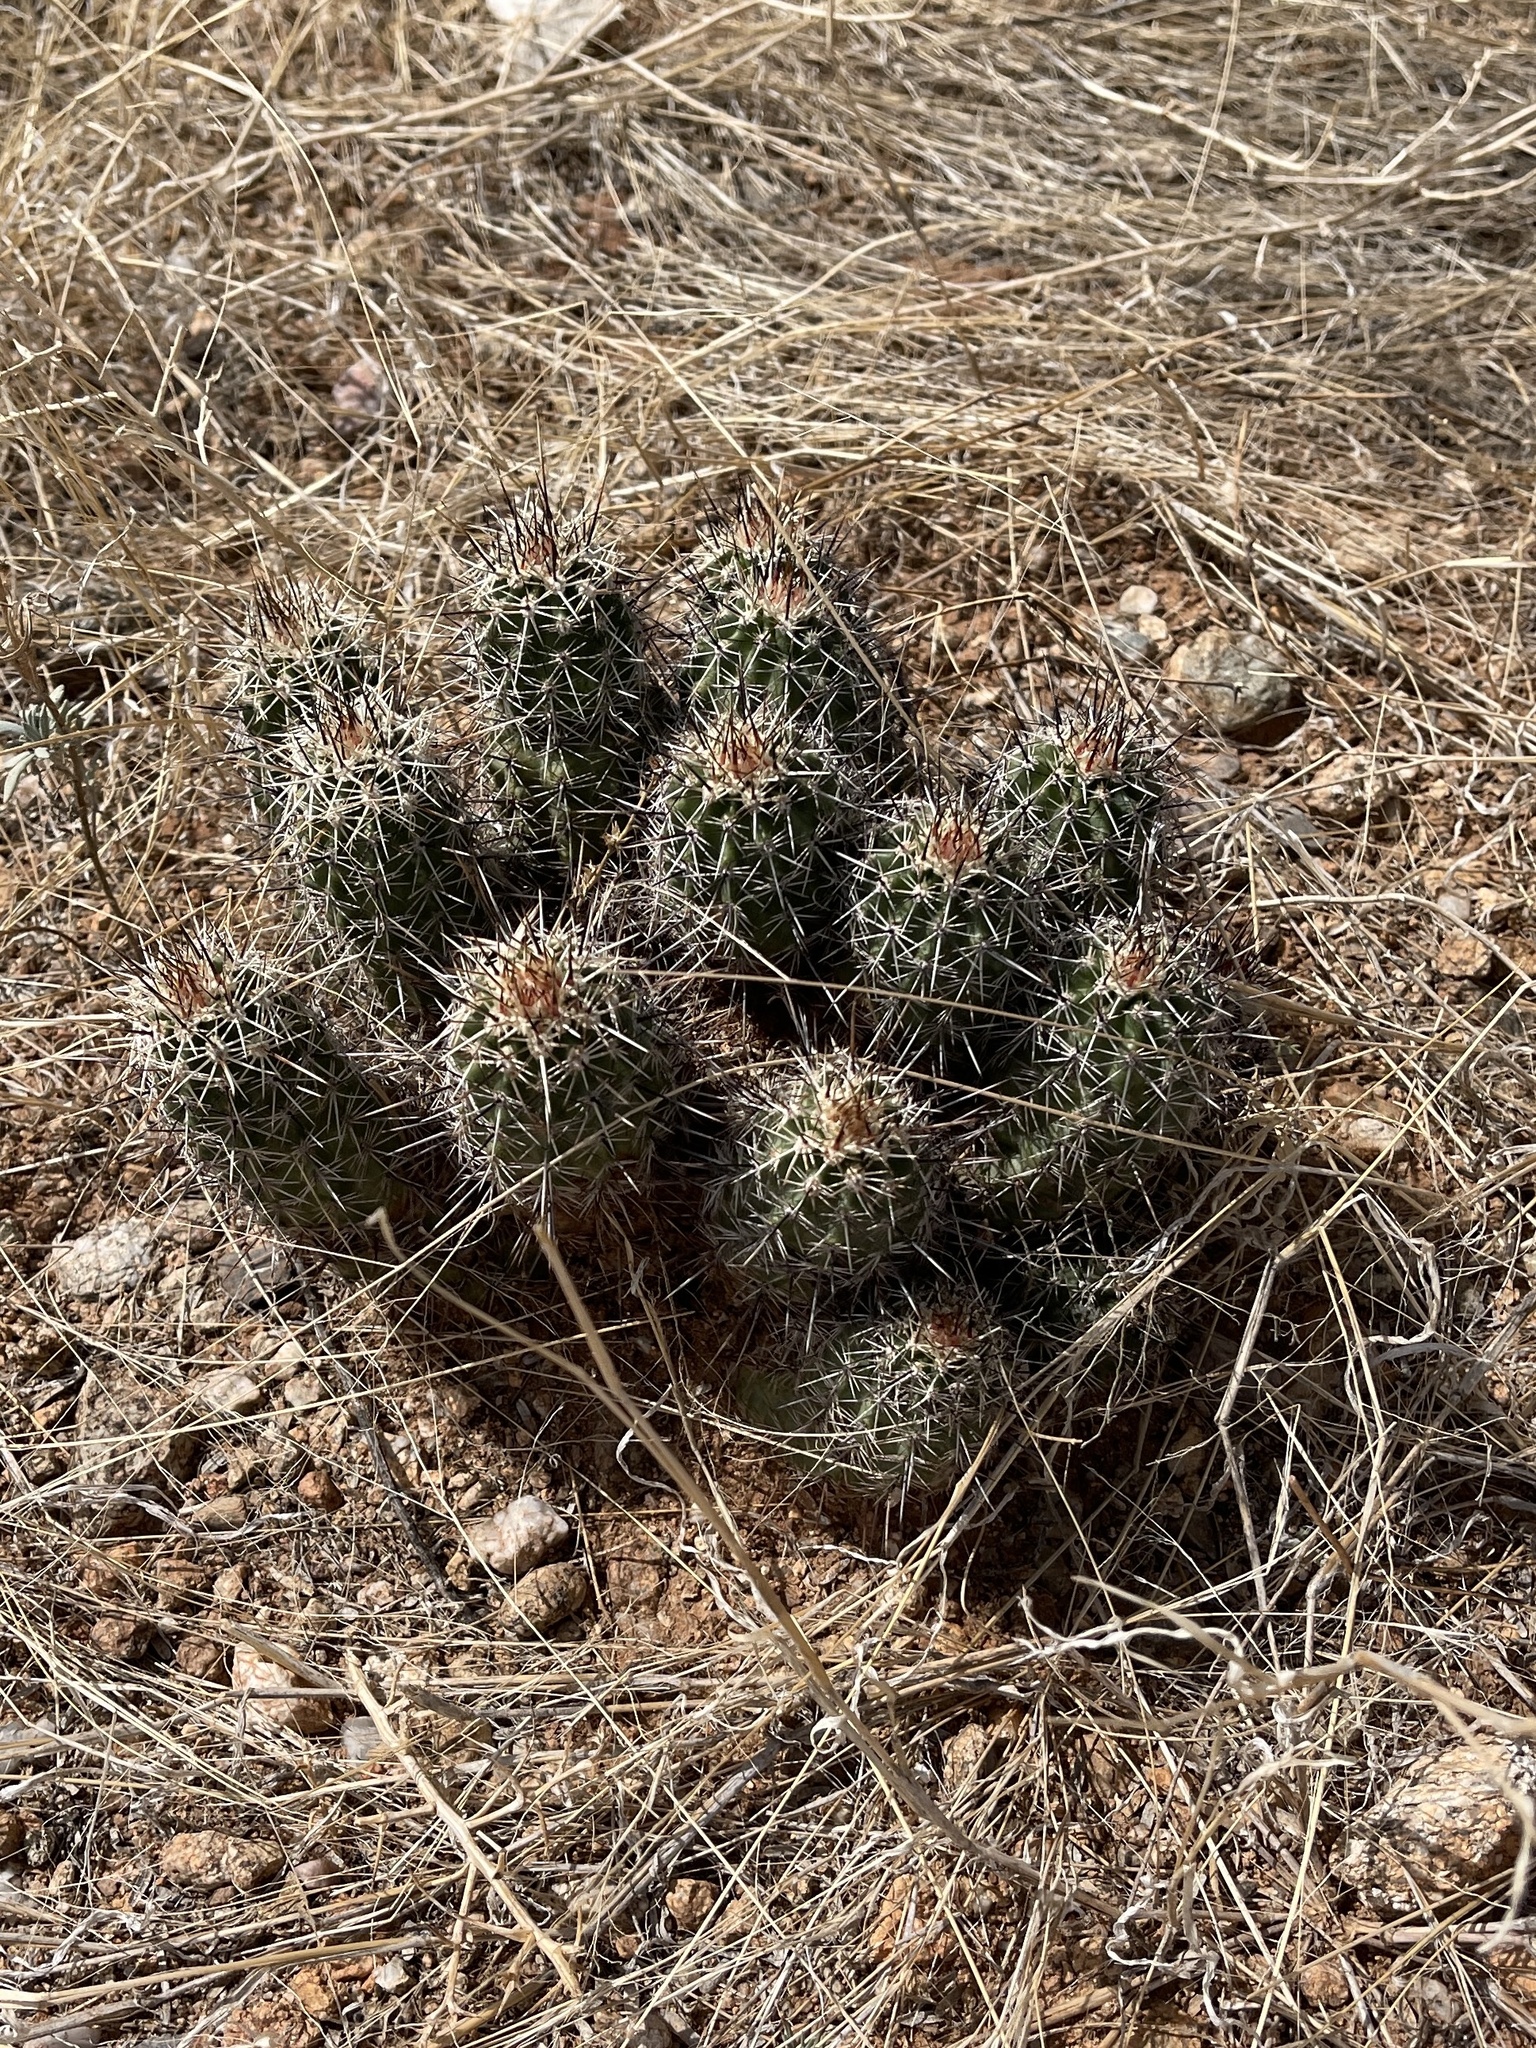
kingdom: Plantae
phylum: Tracheophyta
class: Magnoliopsida
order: Caryophyllales
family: Cactaceae
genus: Echinocereus
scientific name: Echinocereus fasciculatus
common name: Bundle hedgehog
